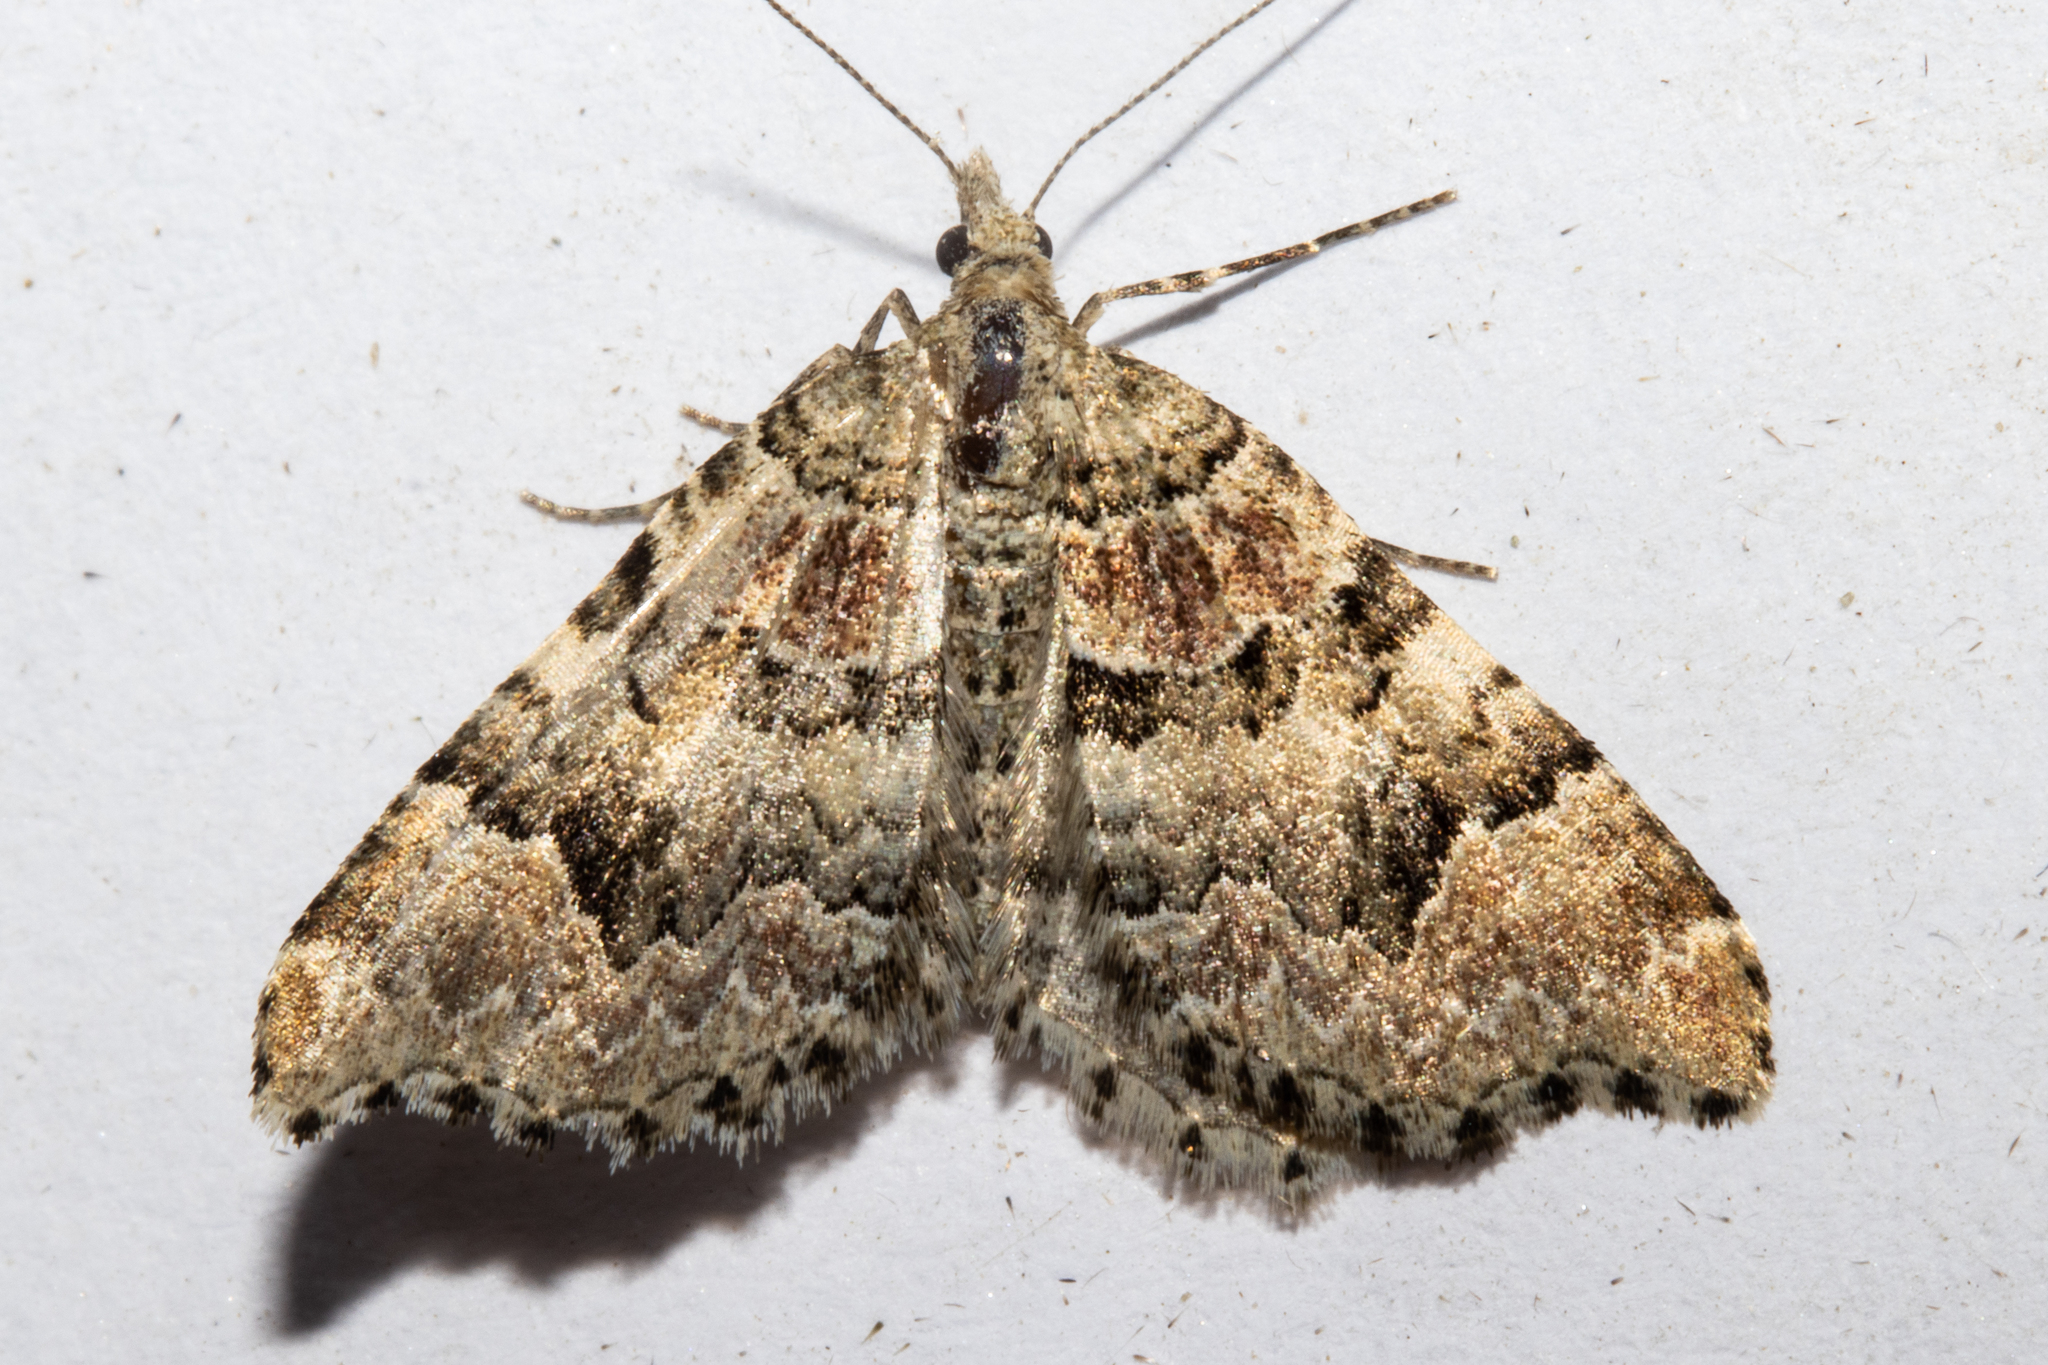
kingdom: Animalia
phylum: Arthropoda
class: Insecta
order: Lepidoptera
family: Geometridae
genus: Helastia
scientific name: Helastia cryptica
